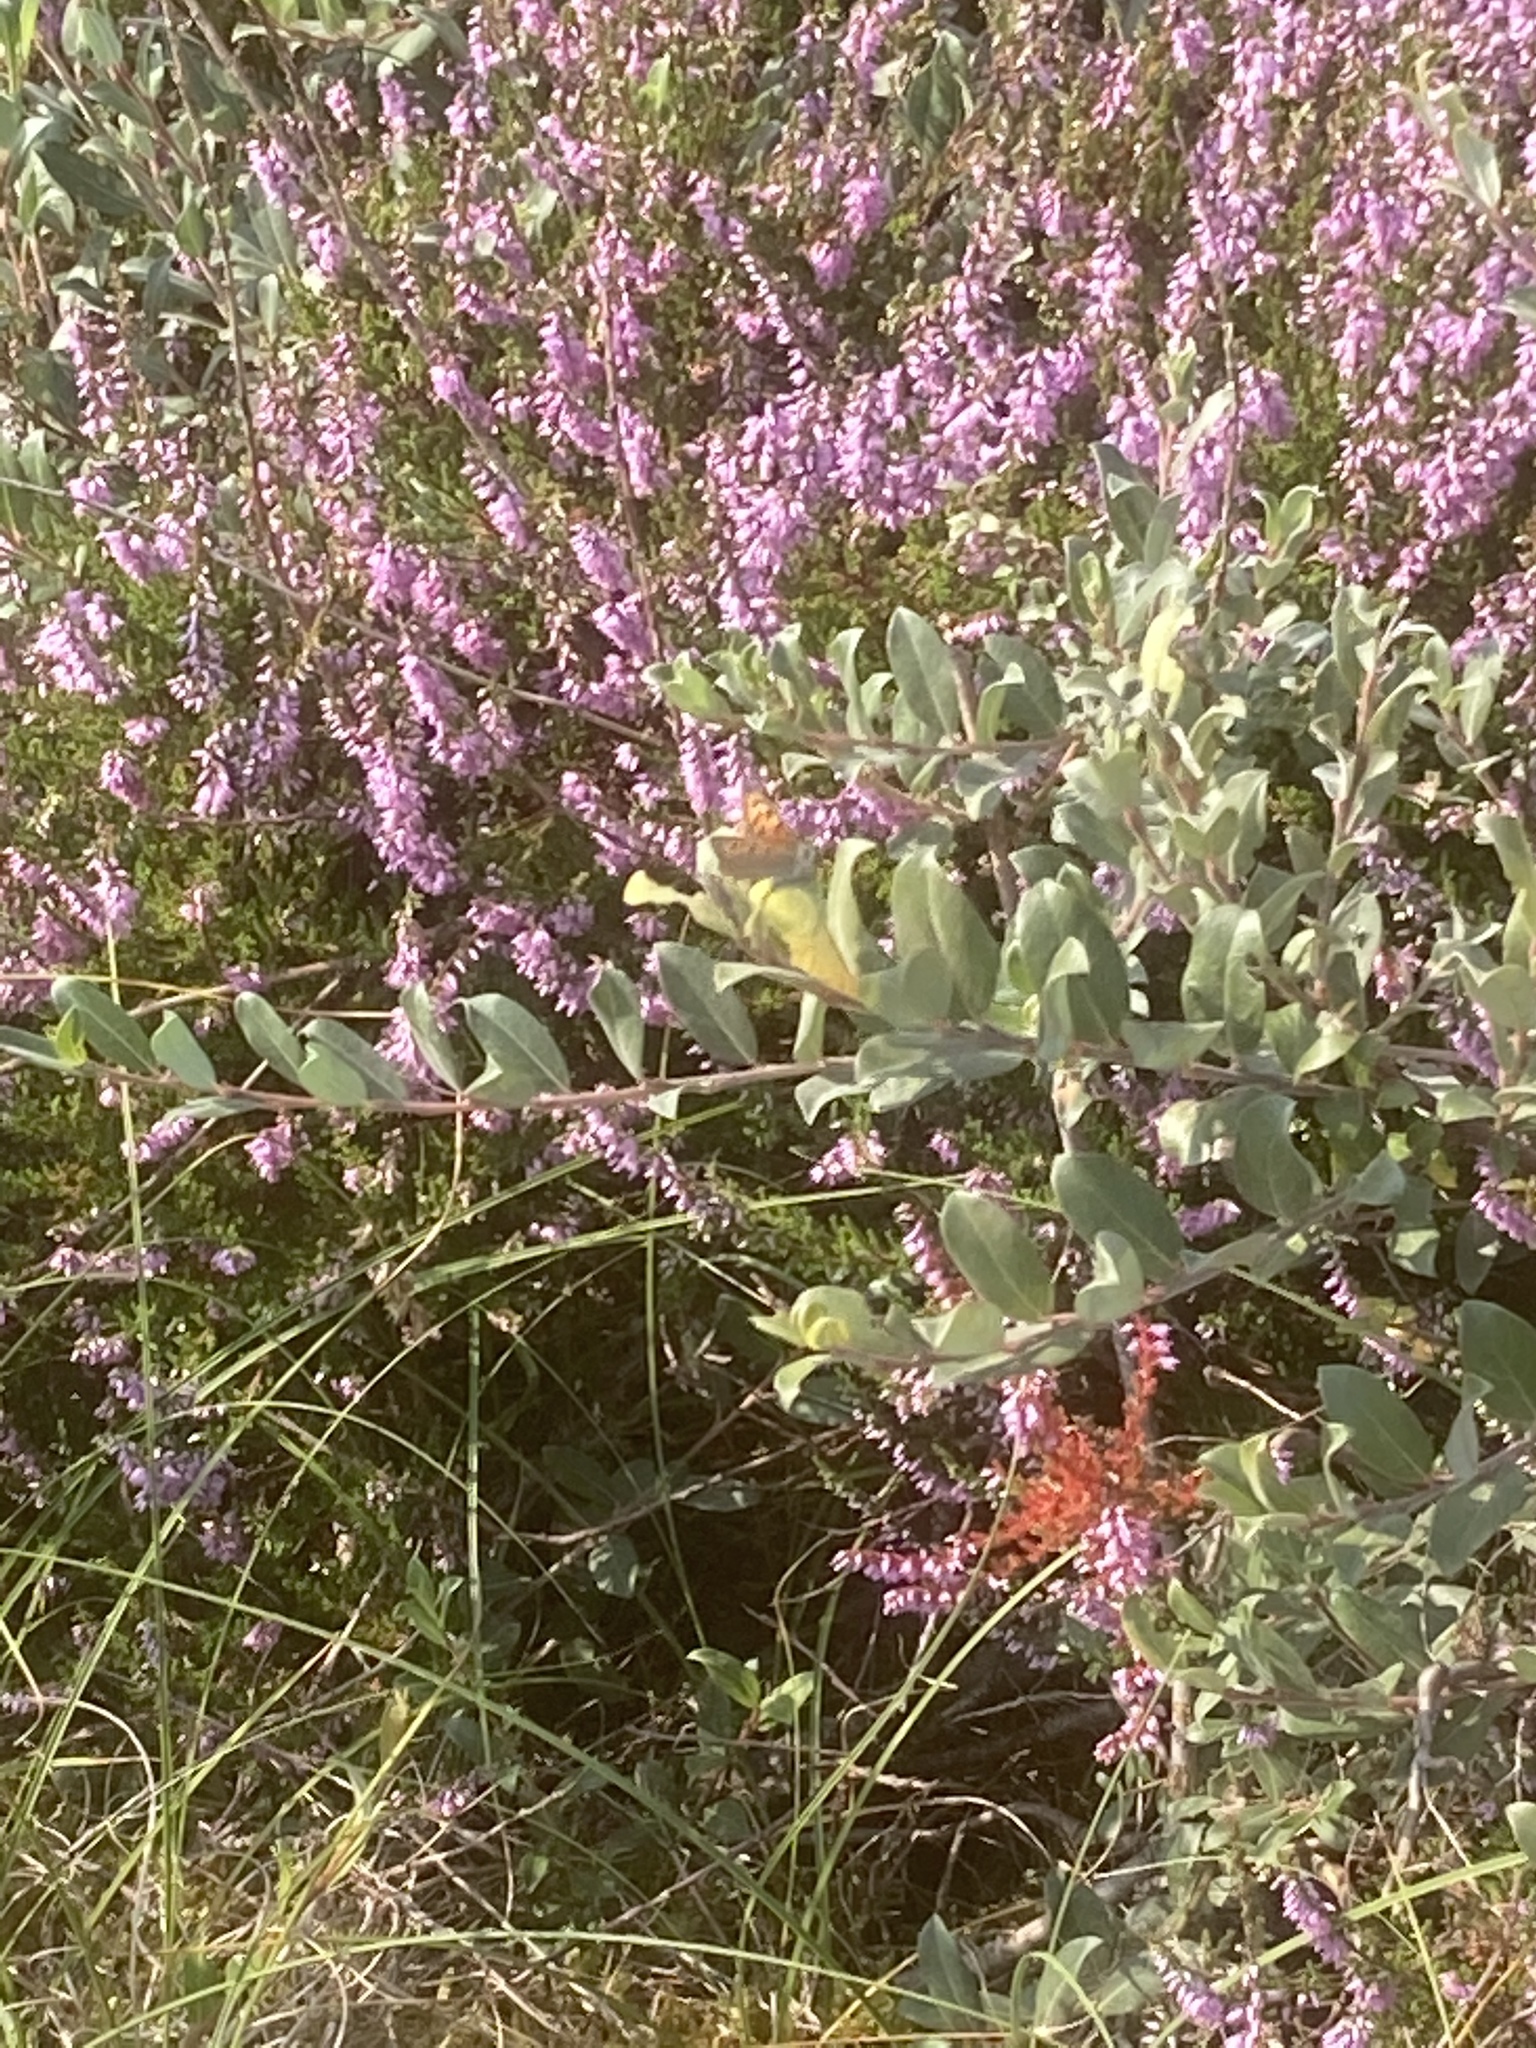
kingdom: Plantae
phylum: Tracheophyta
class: Magnoliopsida
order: Ericales
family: Ericaceae
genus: Calluna
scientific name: Calluna vulgaris
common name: Heather
